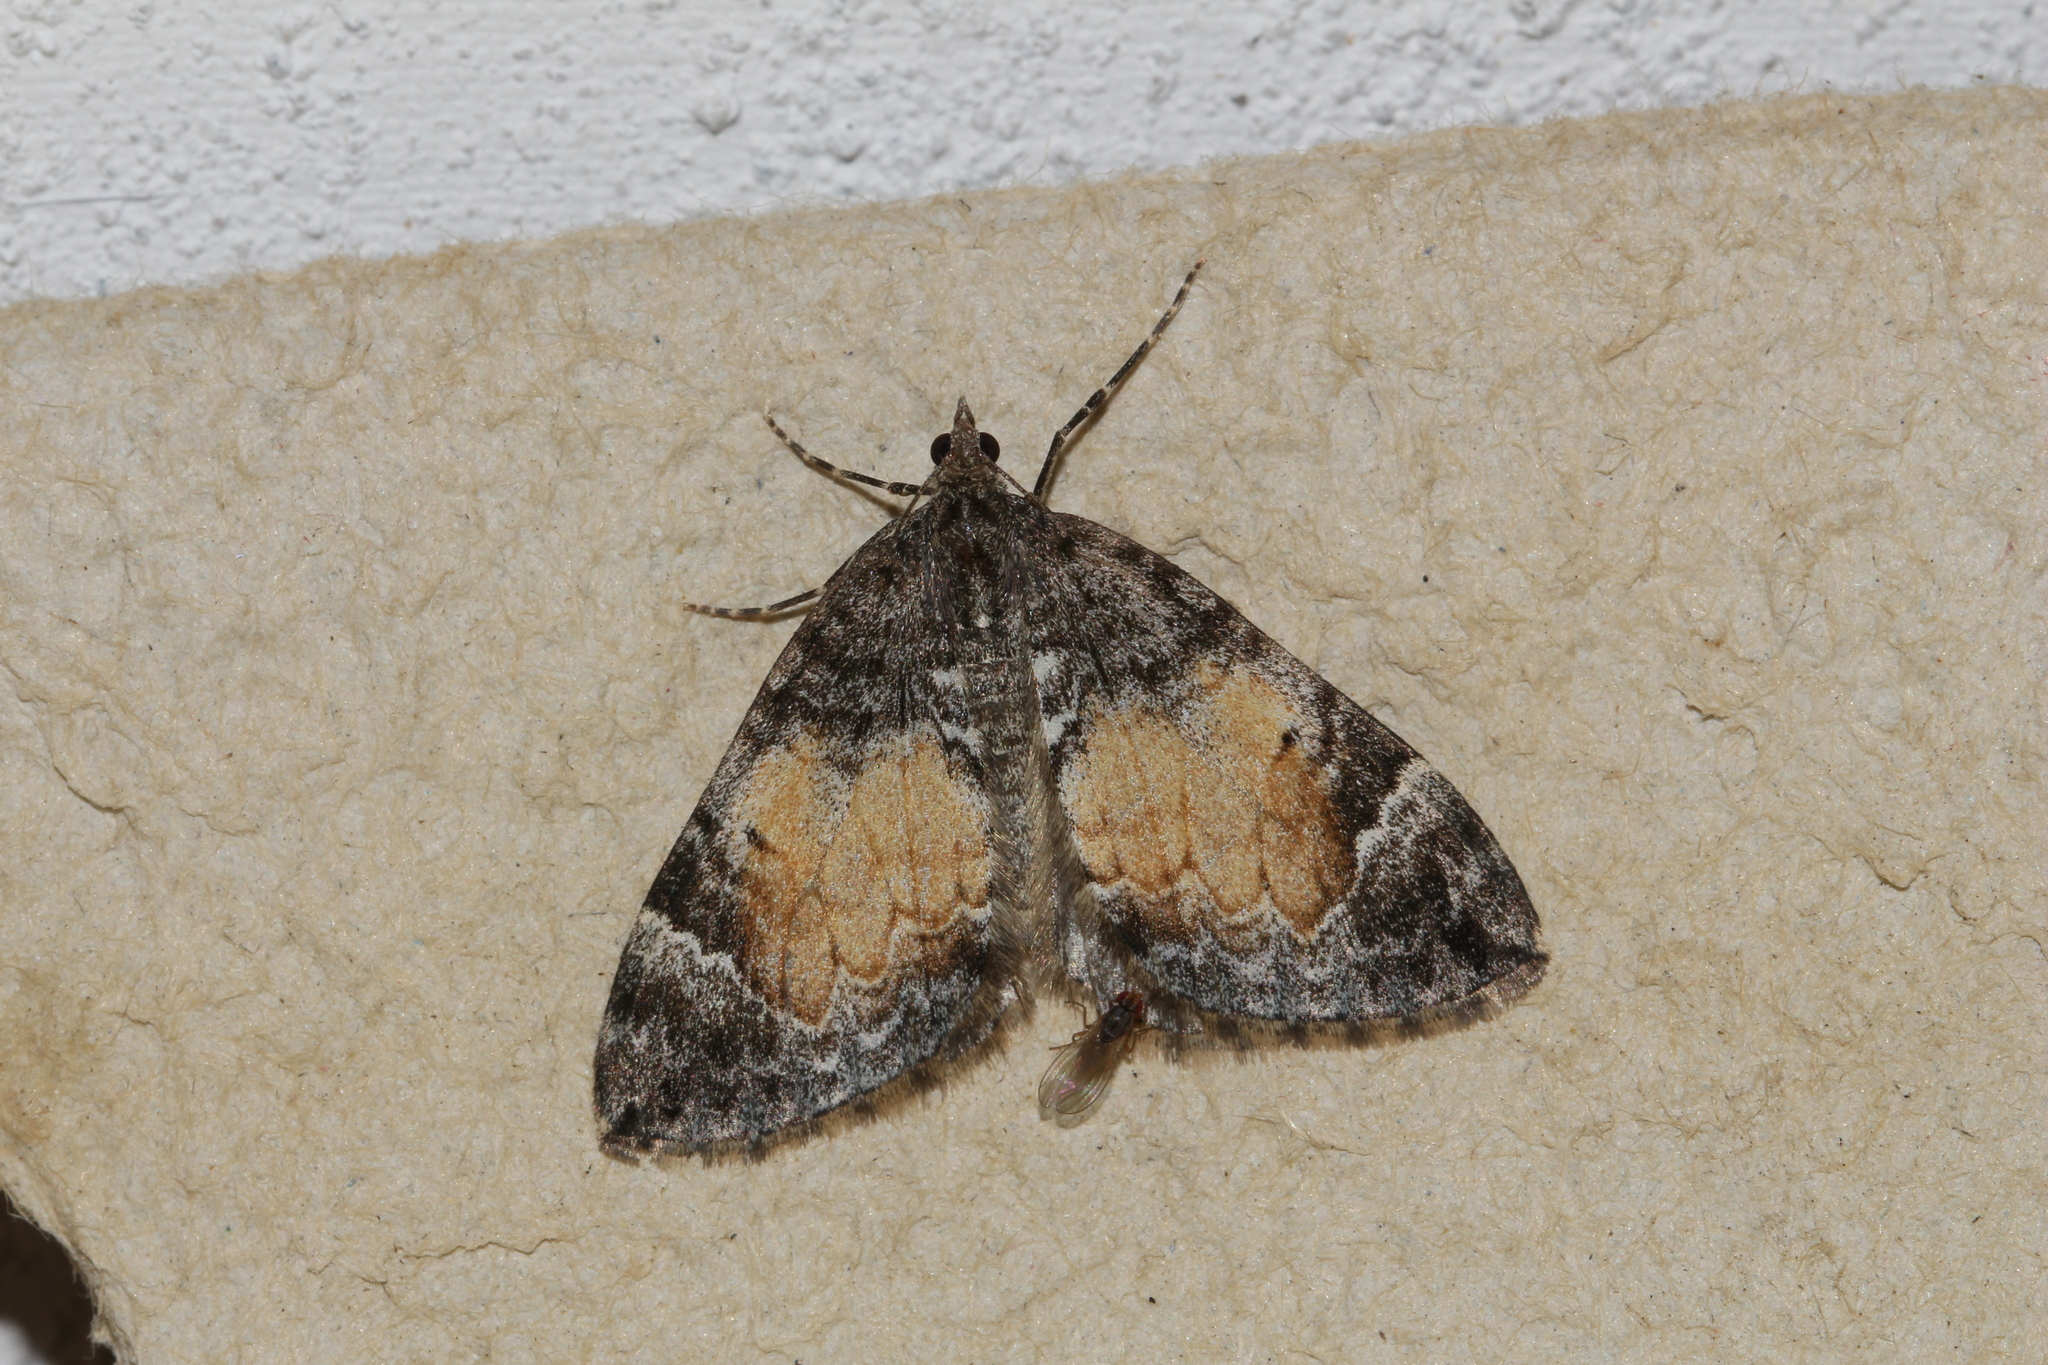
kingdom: Animalia
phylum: Arthropoda
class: Insecta
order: Lepidoptera
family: Geometridae
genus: Dysstroma
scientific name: Dysstroma truncata
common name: Common marbled carpet
